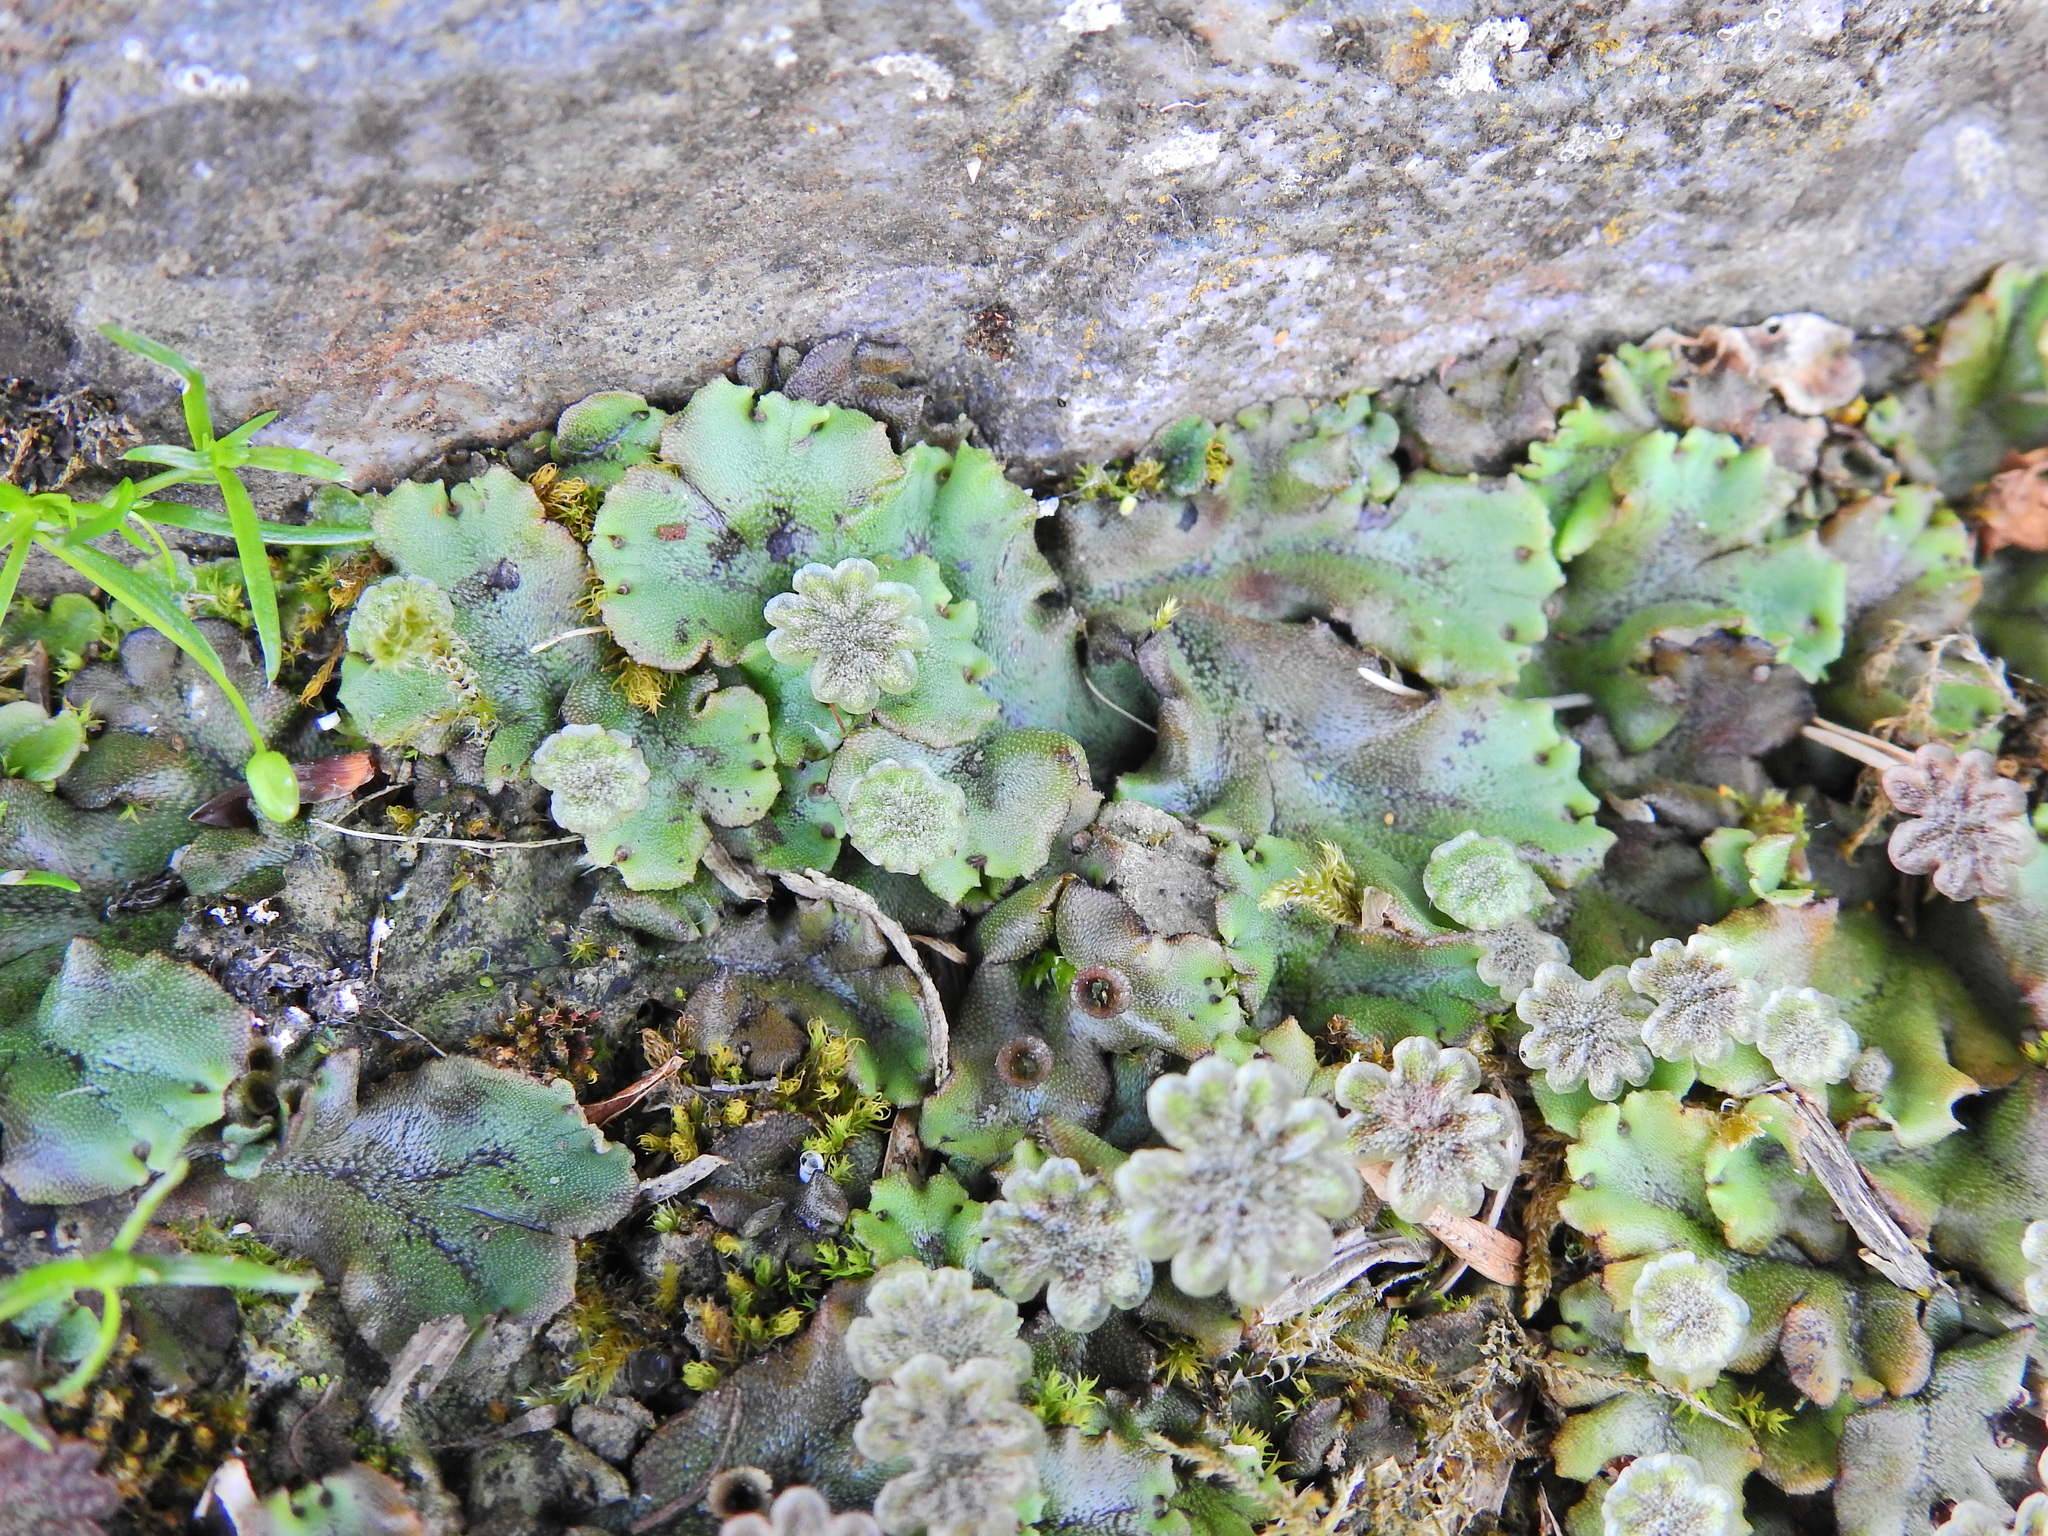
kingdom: Plantae
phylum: Marchantiophyta
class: Marchantiopsida
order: Marchantiales
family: Marchantiaceae
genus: Marchantia
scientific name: Marchantia polymorpha
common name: Common liverwort
